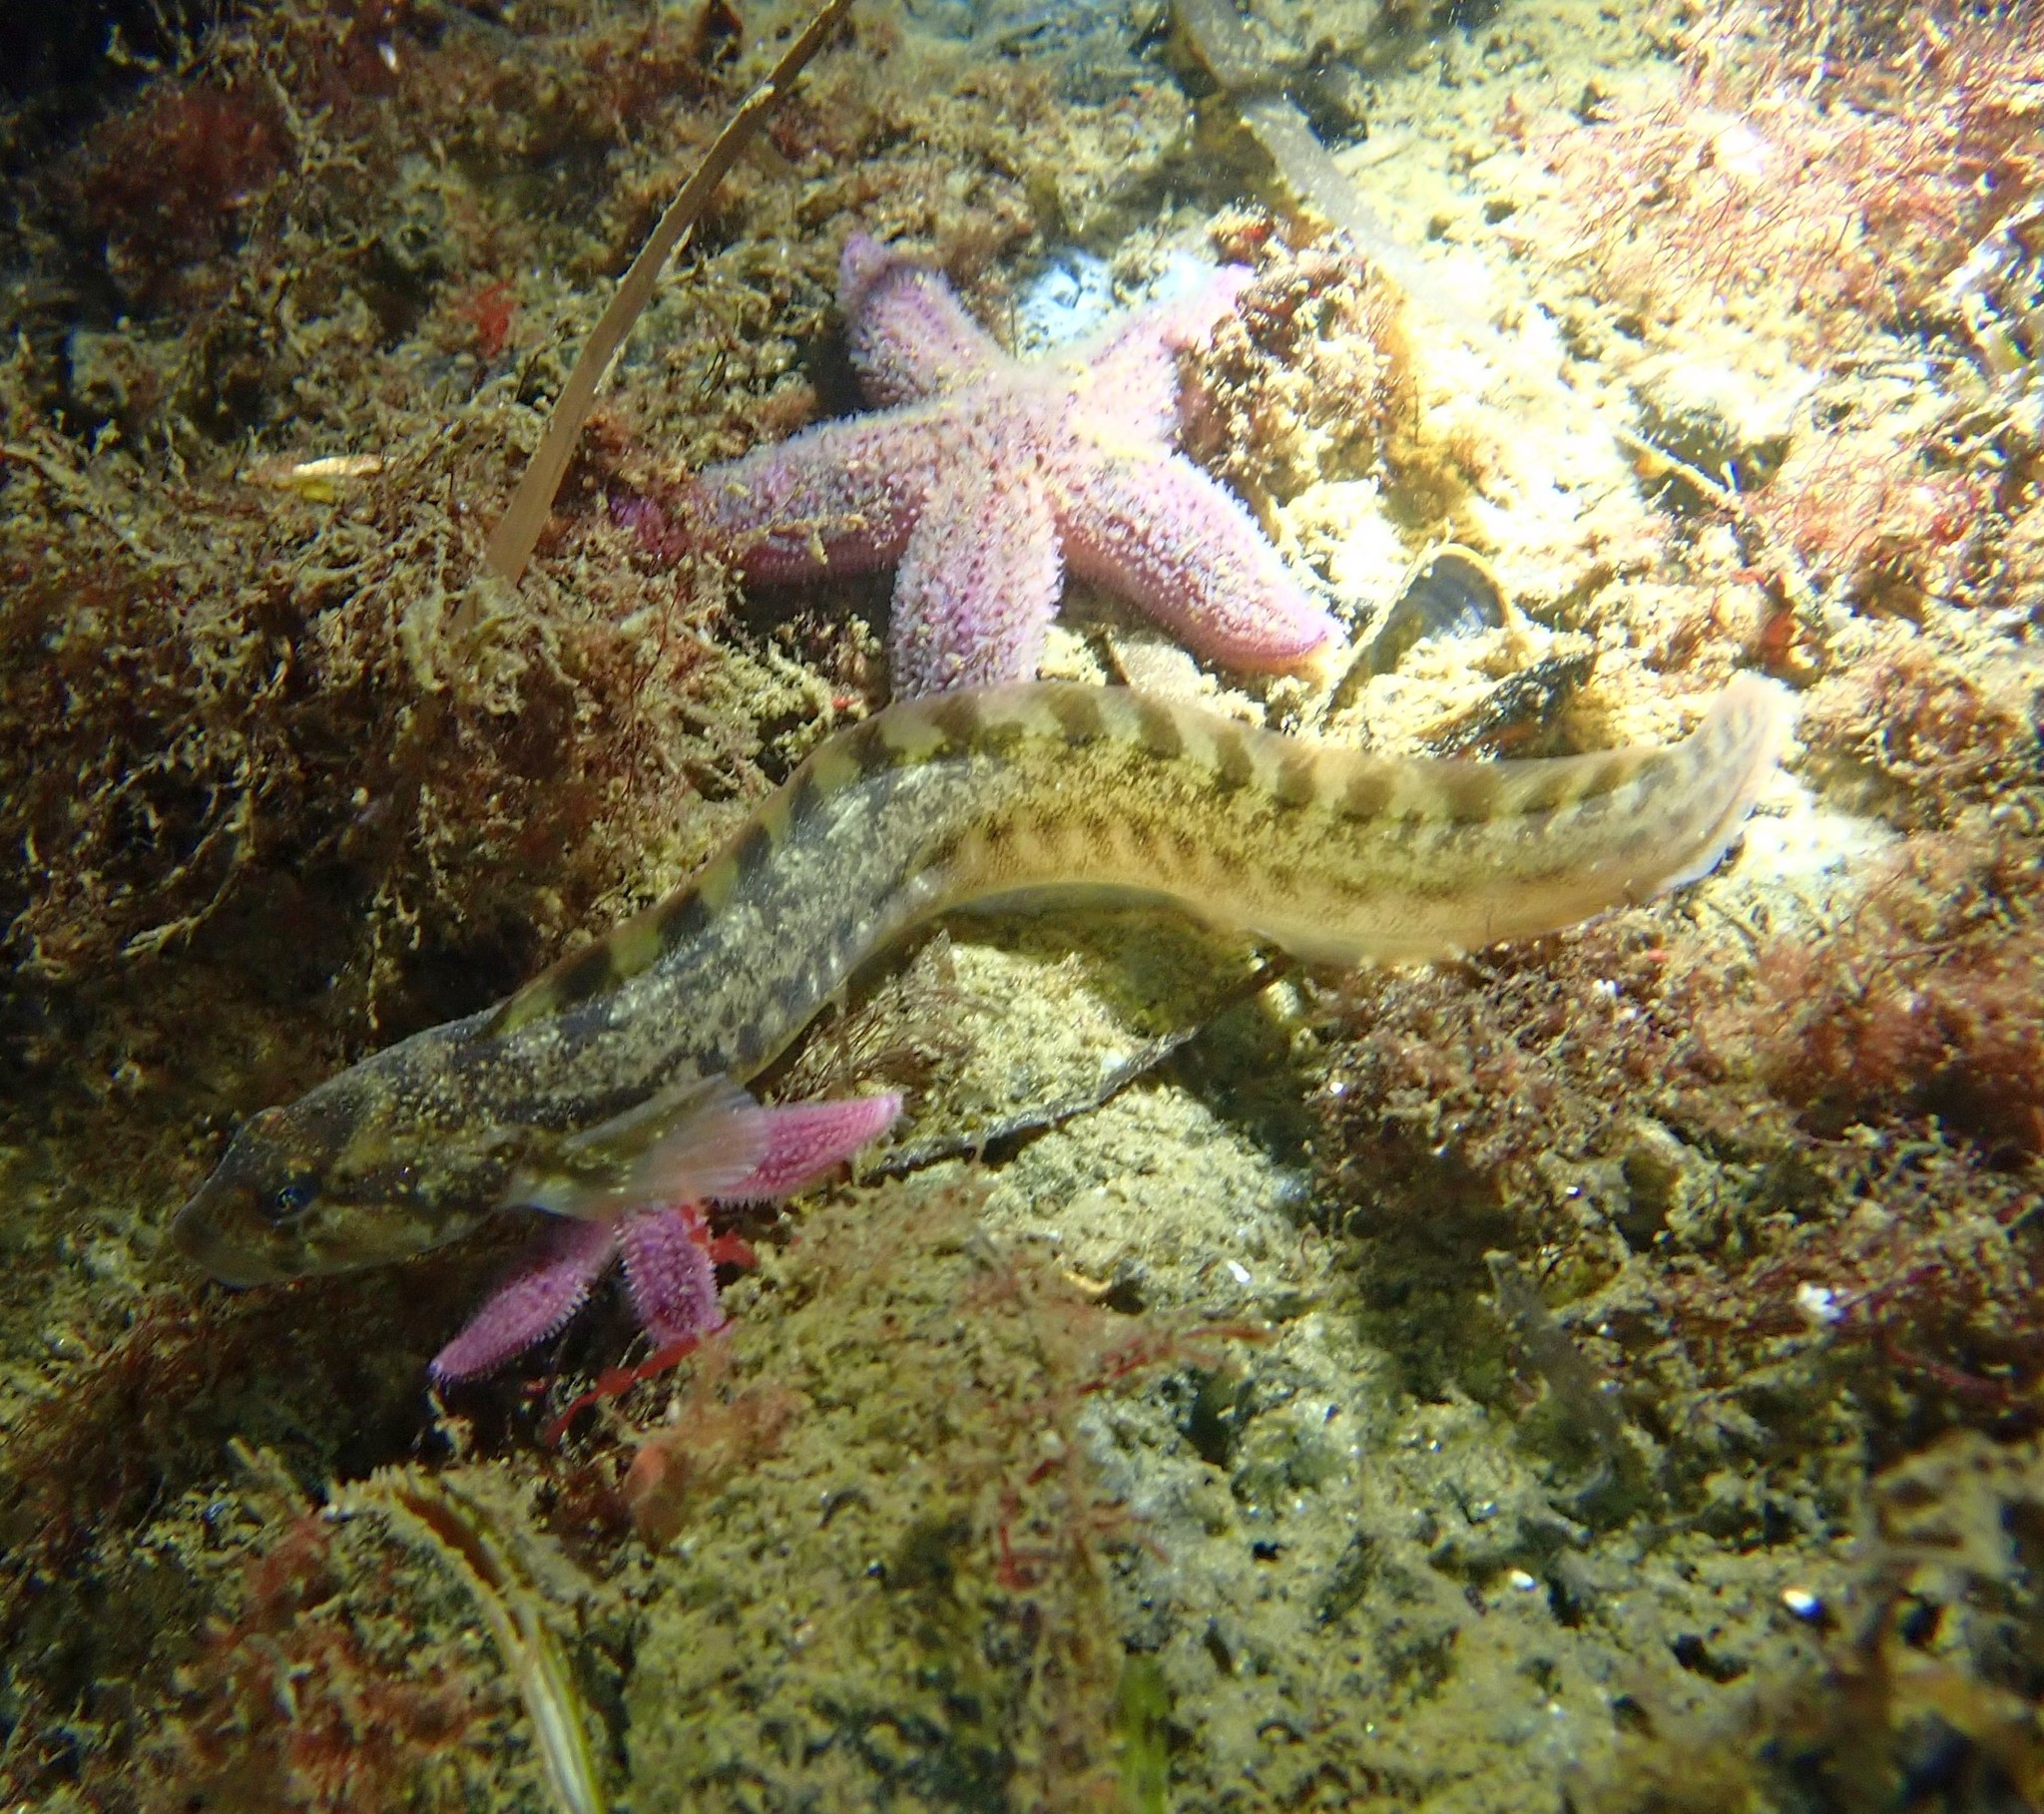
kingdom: Animalia
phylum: Chordata
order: Perciformes
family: Zoarcidae
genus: Zoarces
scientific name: Zoarces viviparus
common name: Viviparous blenny
